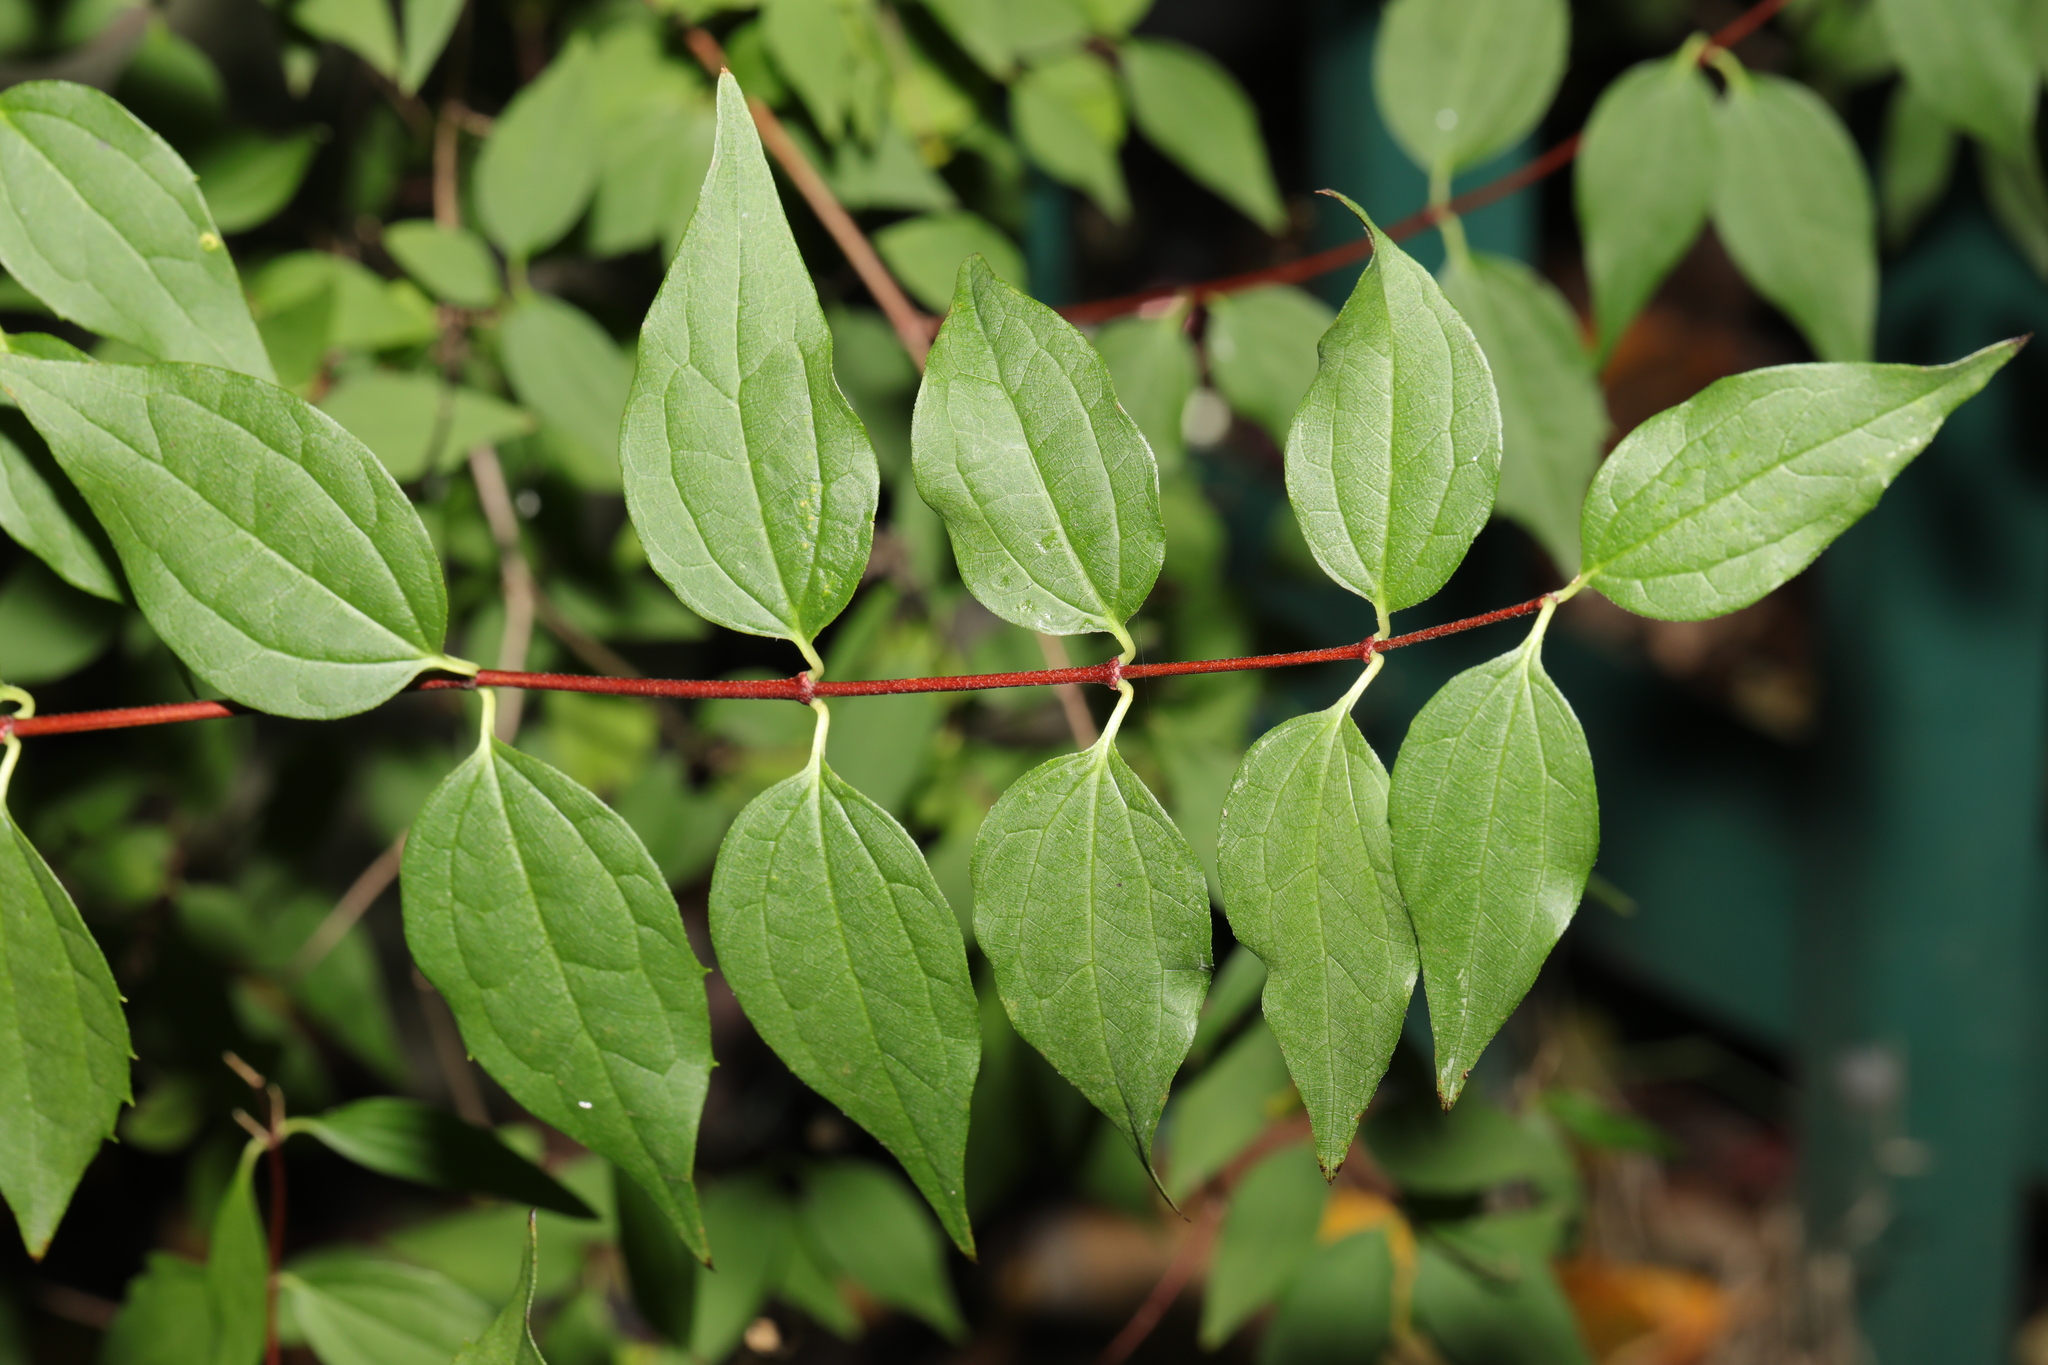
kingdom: Plantae
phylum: Tracheophyta
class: Magnoliopsida
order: Cornales
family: Hydrangeaceae
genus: Philadelphus
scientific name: Philadelphus coronarius
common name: Mock orange
